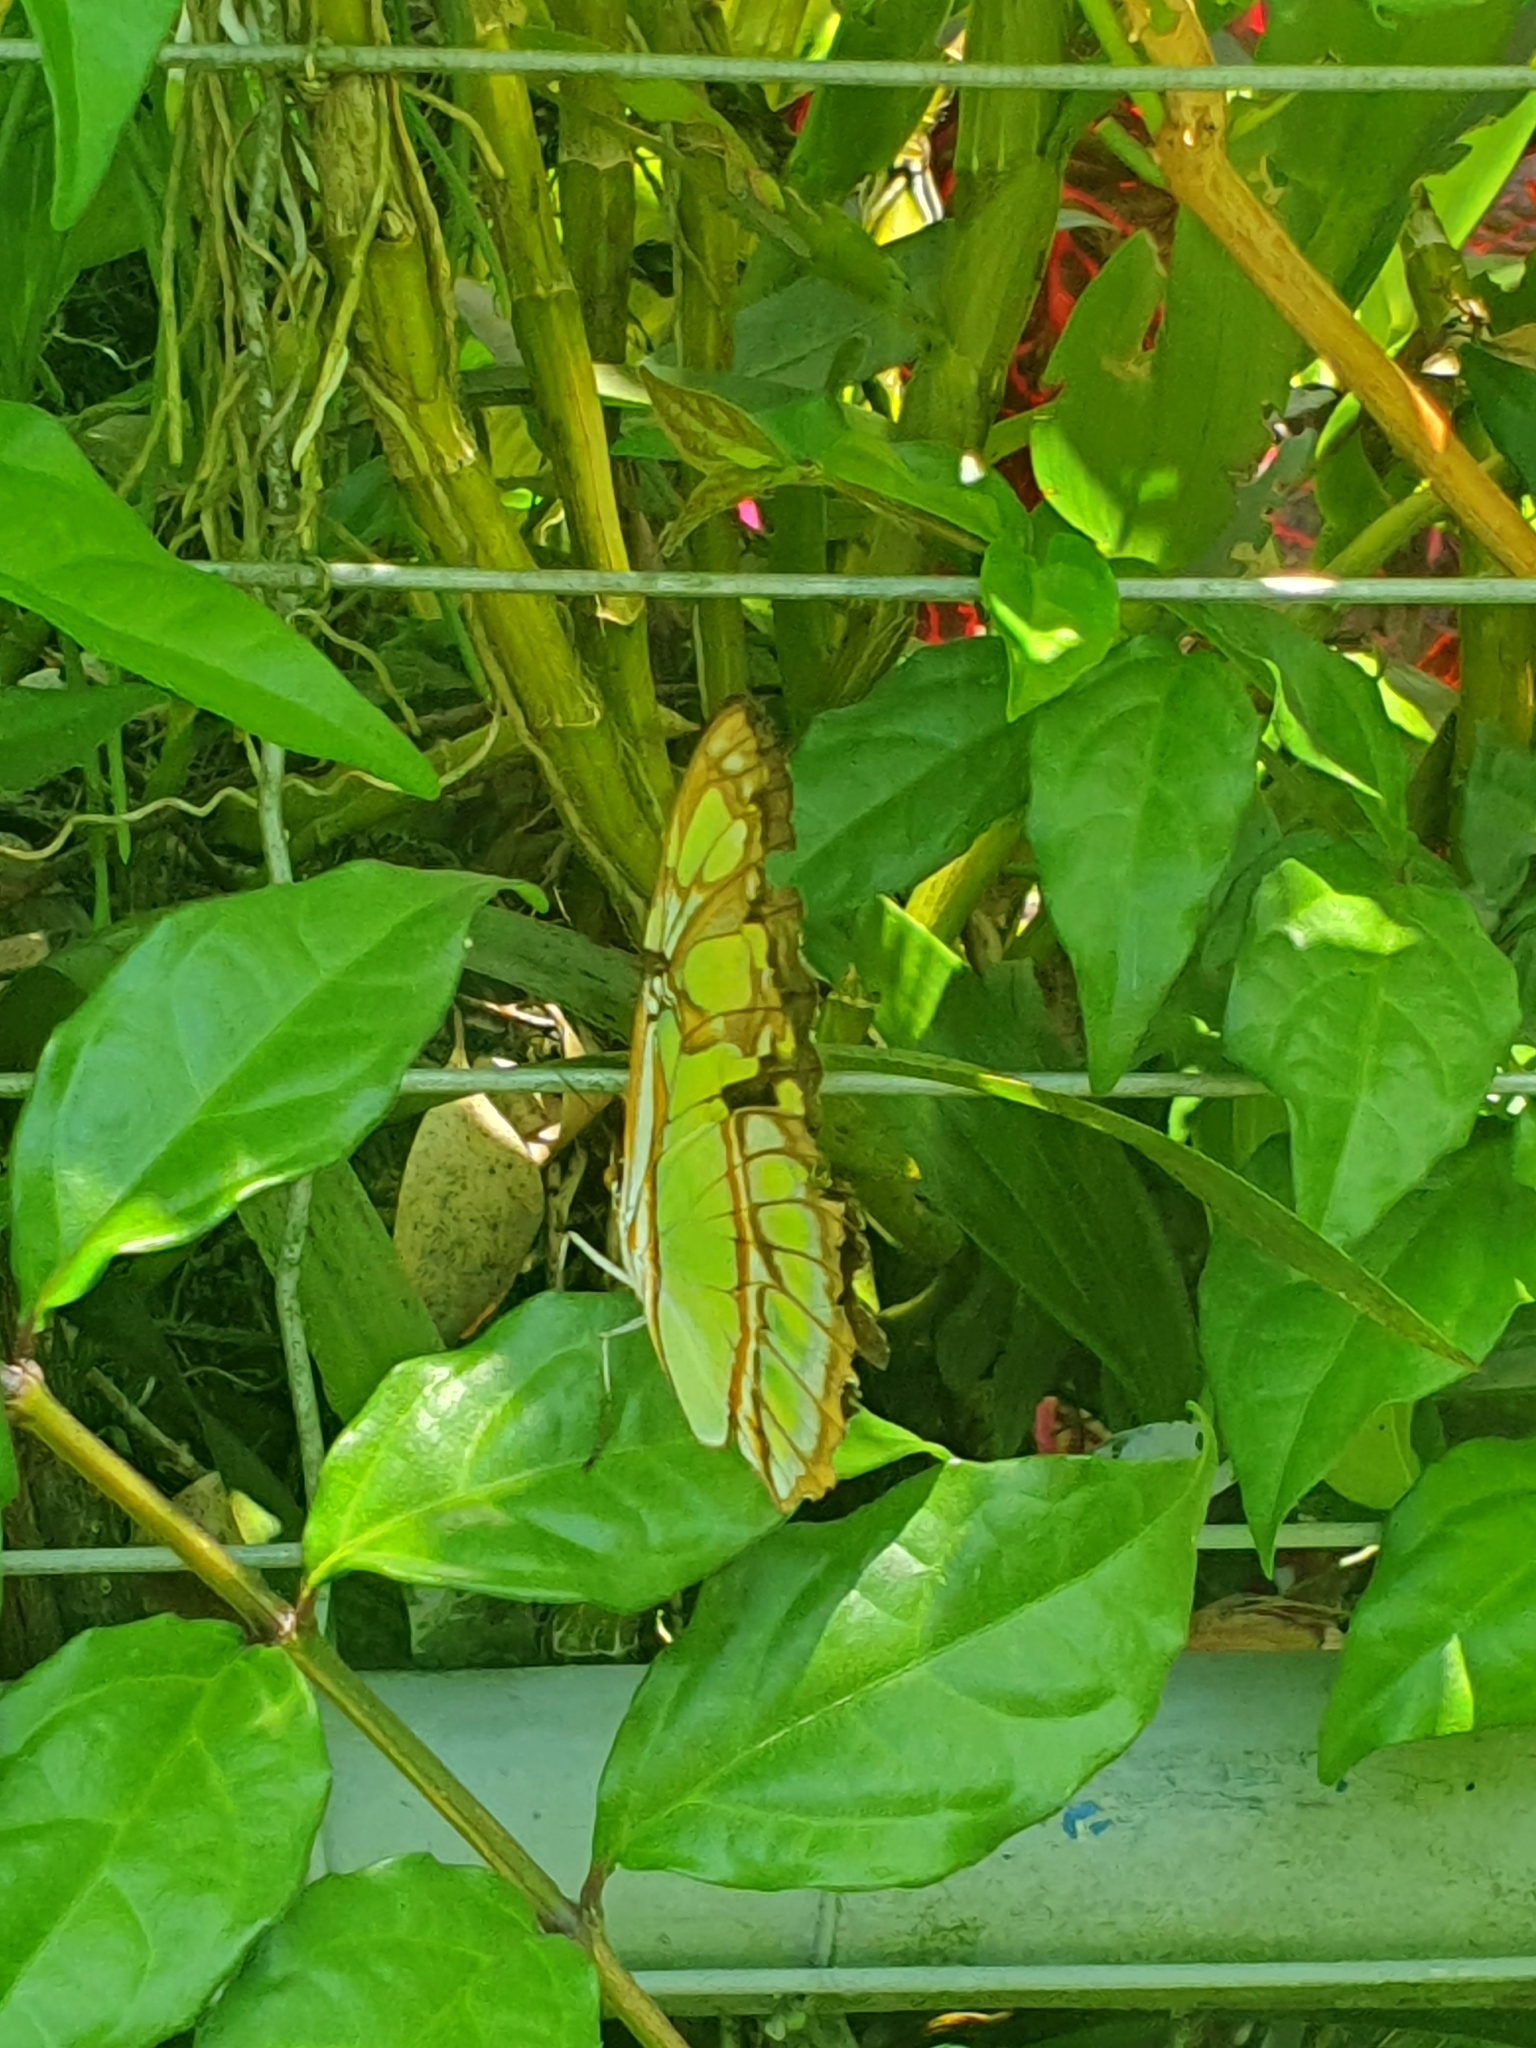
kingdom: Animalia
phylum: Arthropoda
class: Insecta
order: Lepidoptera
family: Nymphalidae
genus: Siproeta
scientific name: Siproeta stelenes
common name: Malachite
